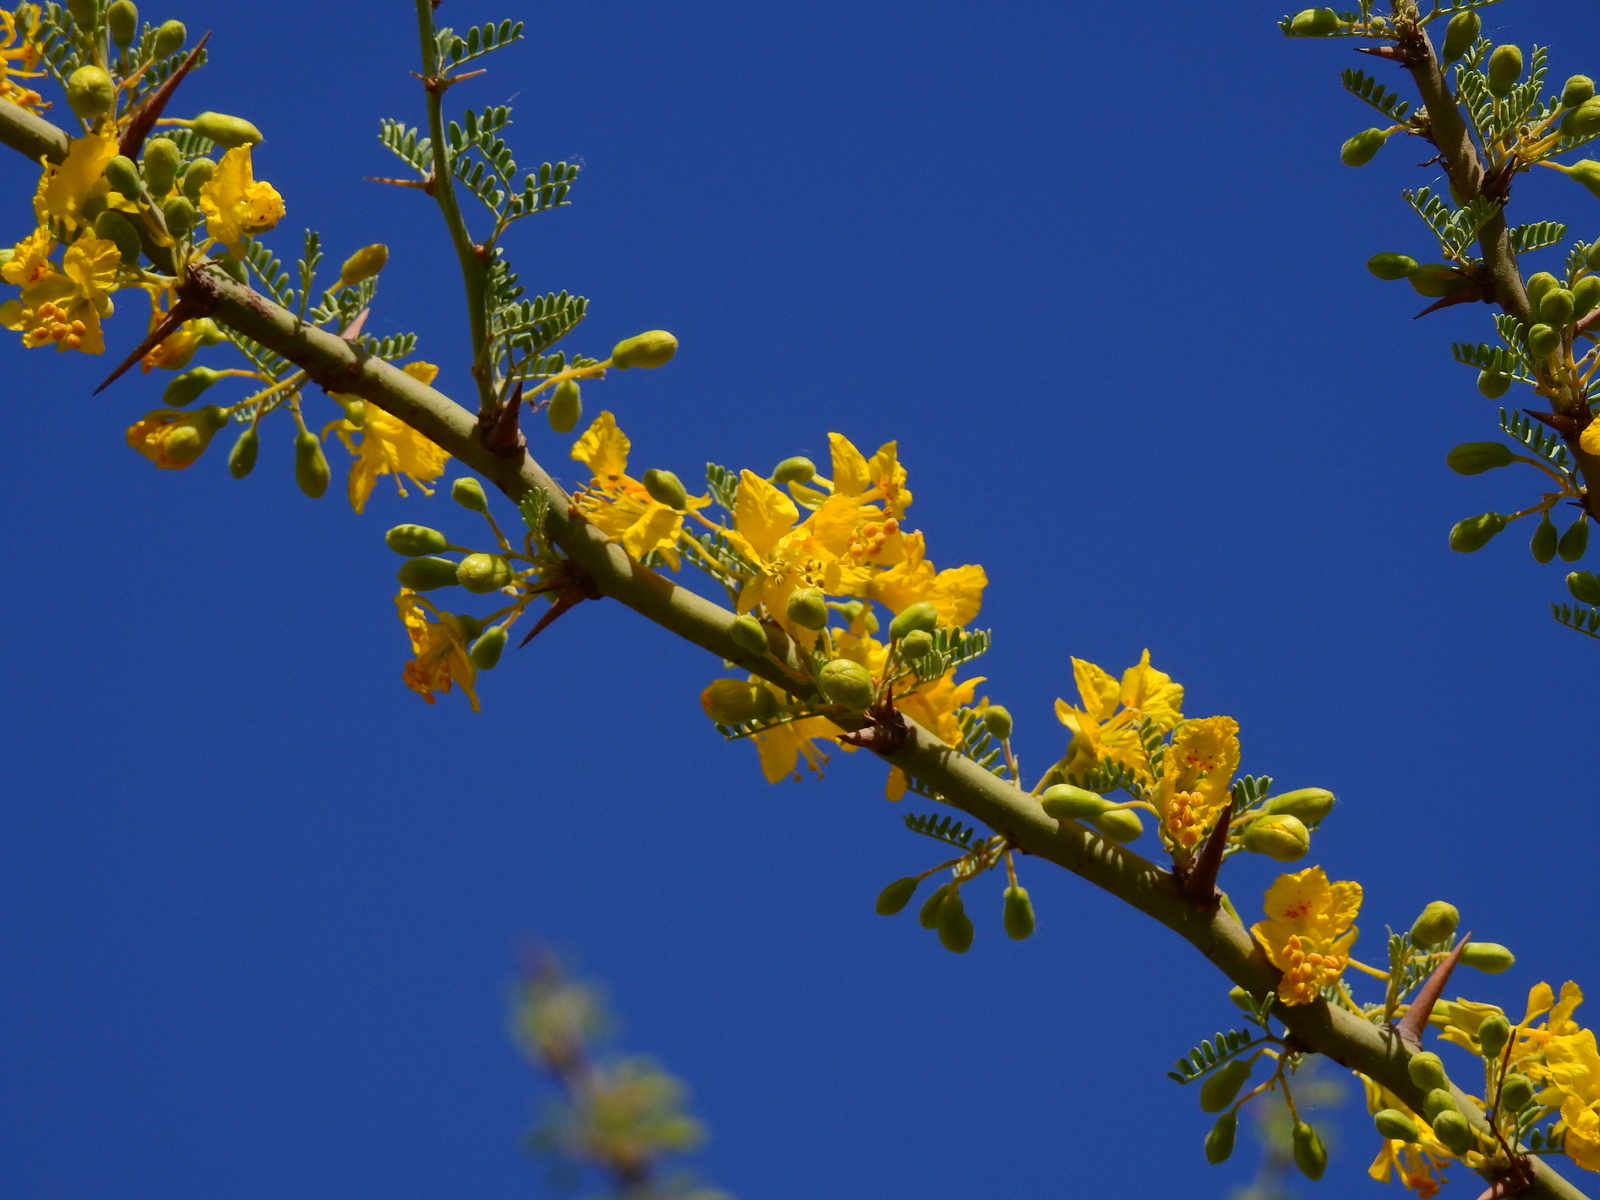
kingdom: Plantae
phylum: Tracheophyta
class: Magnoliopsida
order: Fabales
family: Fabaceae
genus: Parkinsonia
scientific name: Parkinsonia praecox
